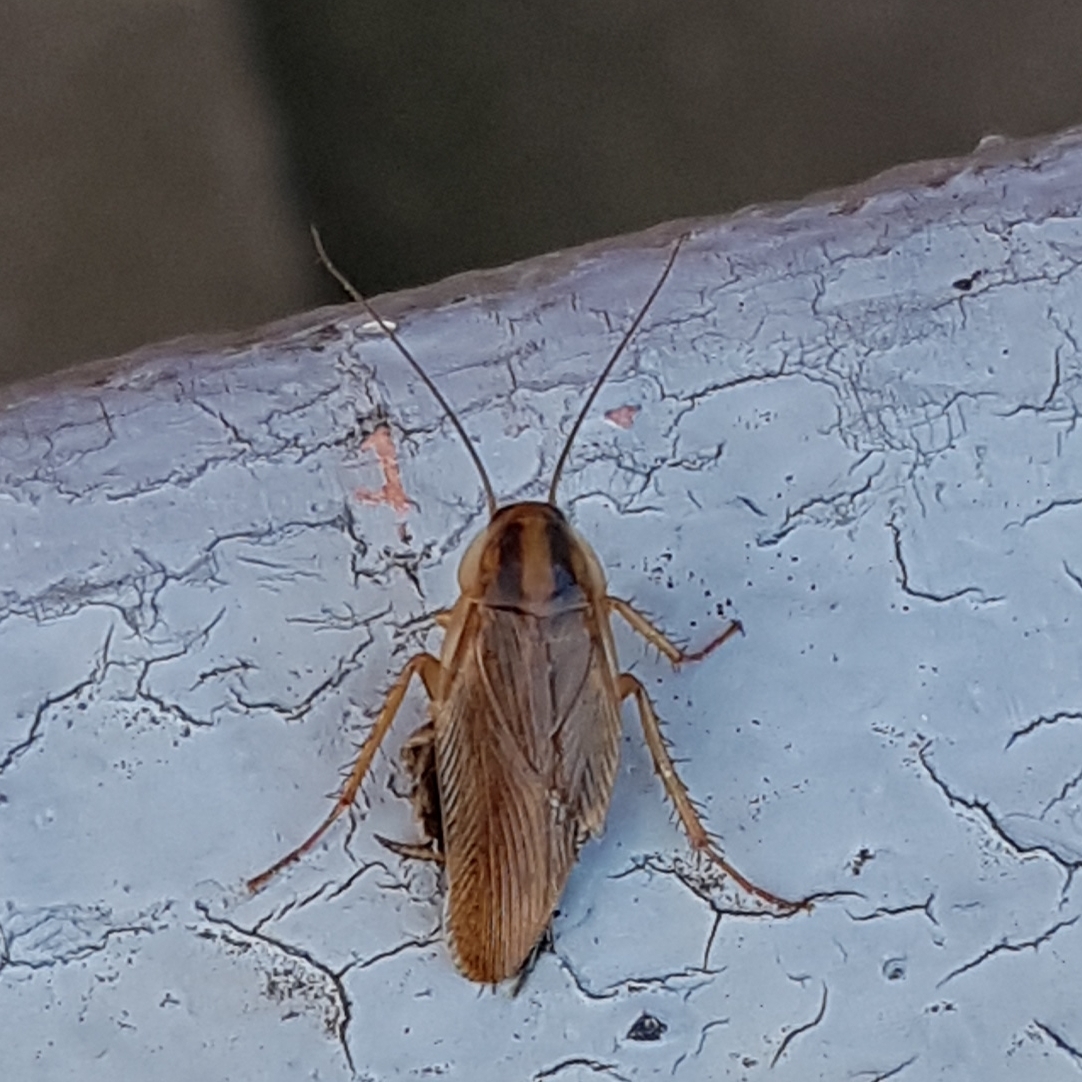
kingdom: Animalia
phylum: Arthropoda
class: Insecta
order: Blattodea
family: Ectobiidae
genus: Blattella
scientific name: Blattella germanica
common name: German cockroach
